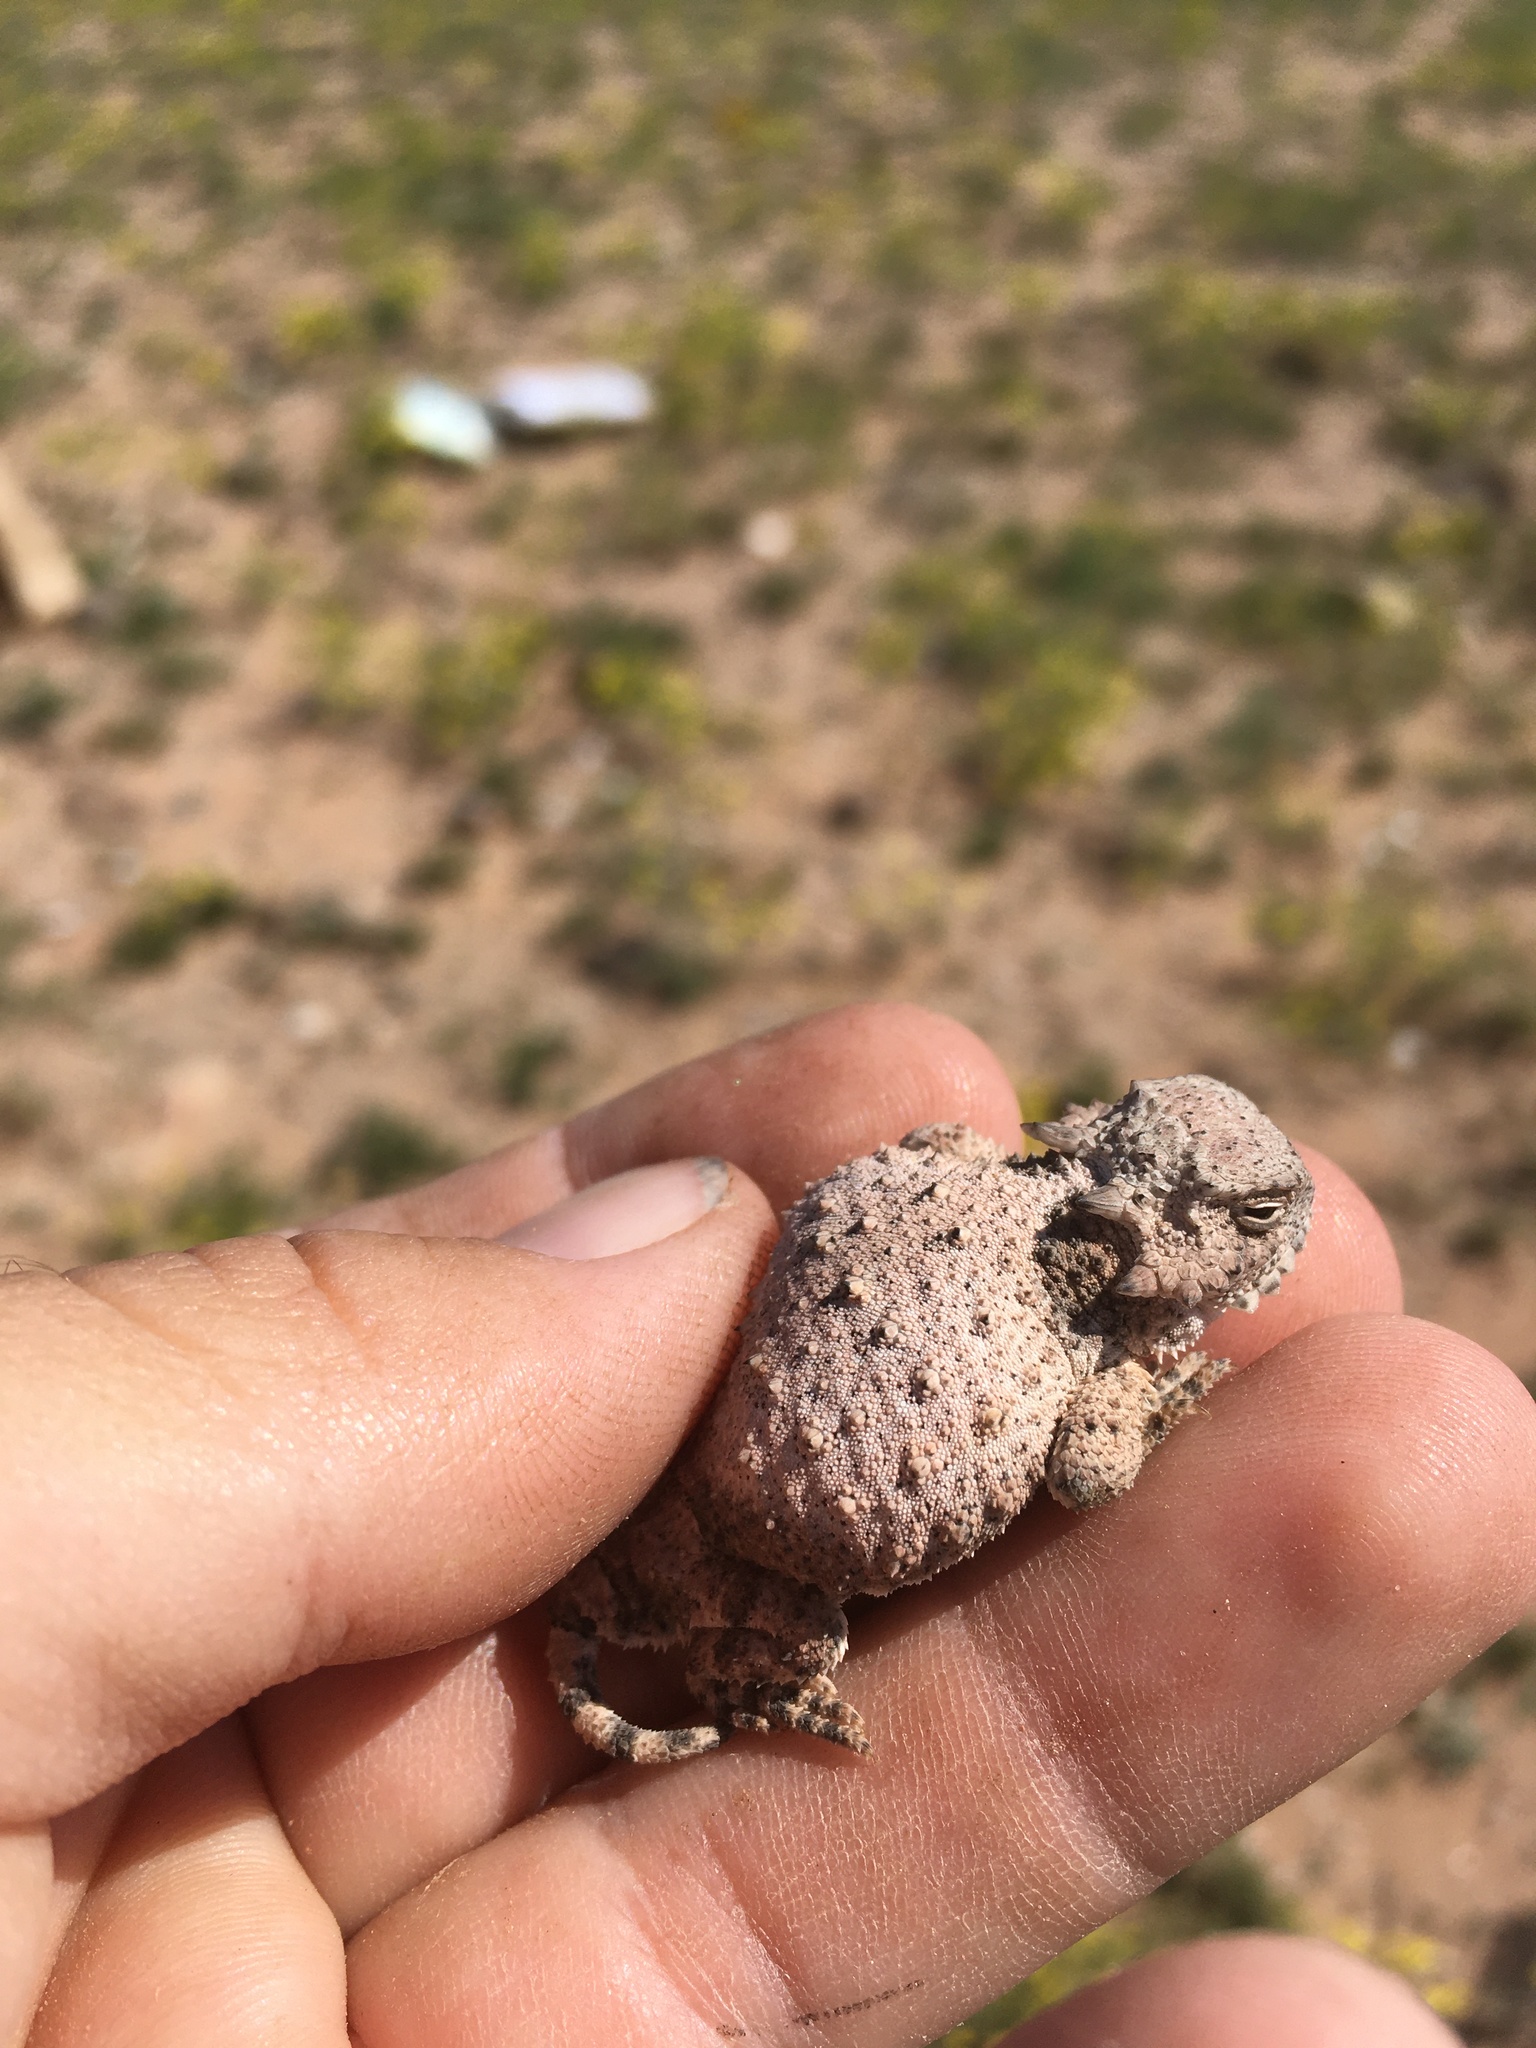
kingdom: Animalia
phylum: Chordata
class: Squamata
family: Phrynosomatidae
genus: Phrynosoma
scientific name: Phrynosoma modestum
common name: Roundtail horned lizard
